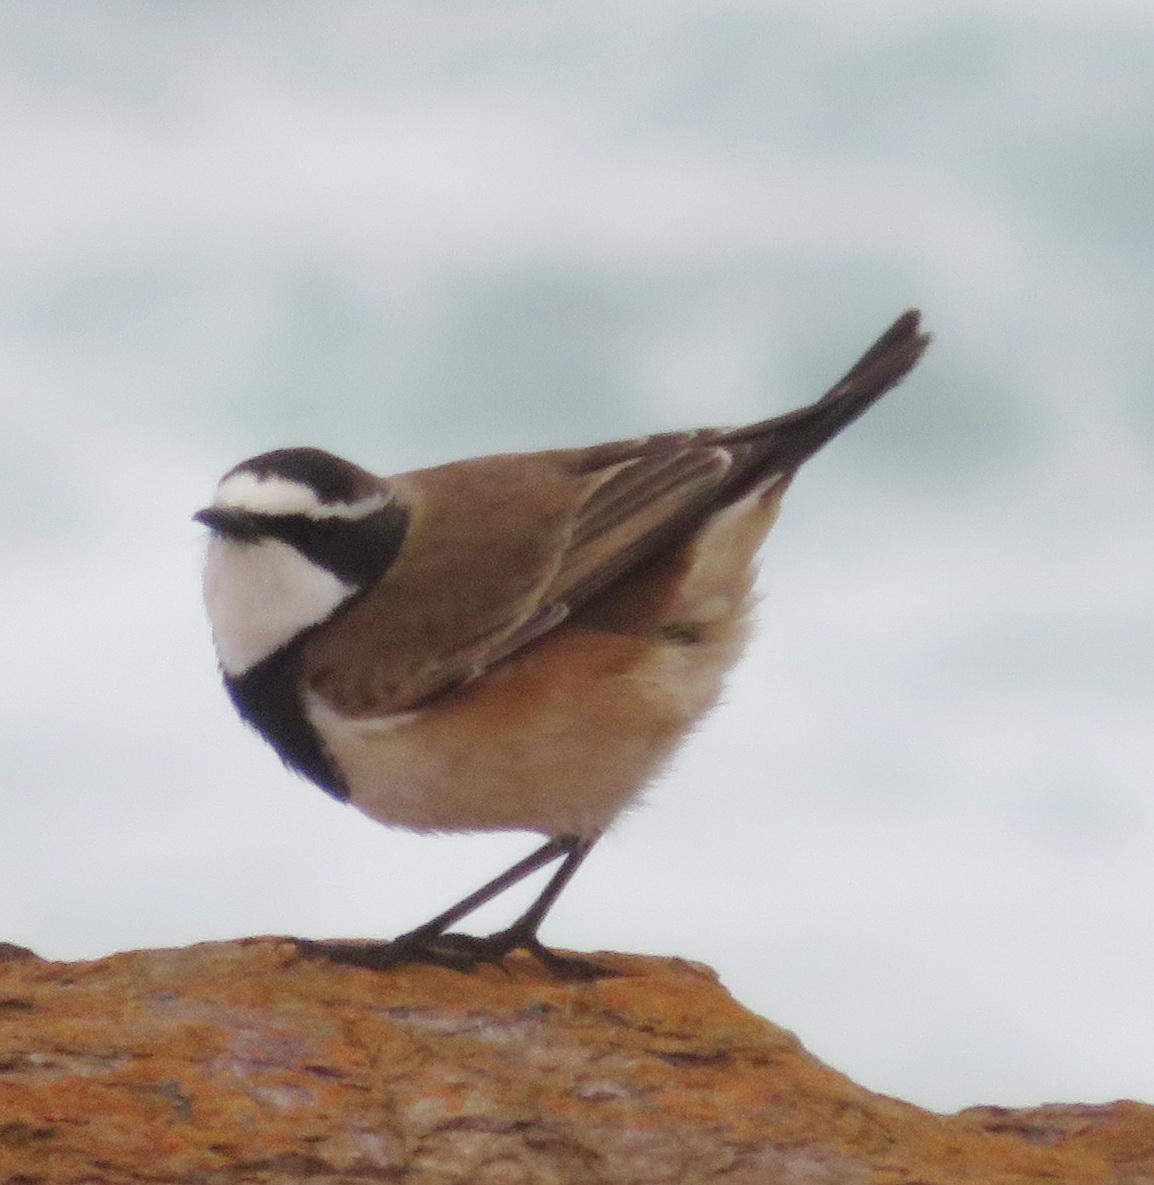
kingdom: Animalia
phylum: Chordata
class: Aves
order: Passeriformes
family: Muscicapidae
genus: Oenanthe
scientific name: Oenanthe pileata
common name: Capped wheatear
